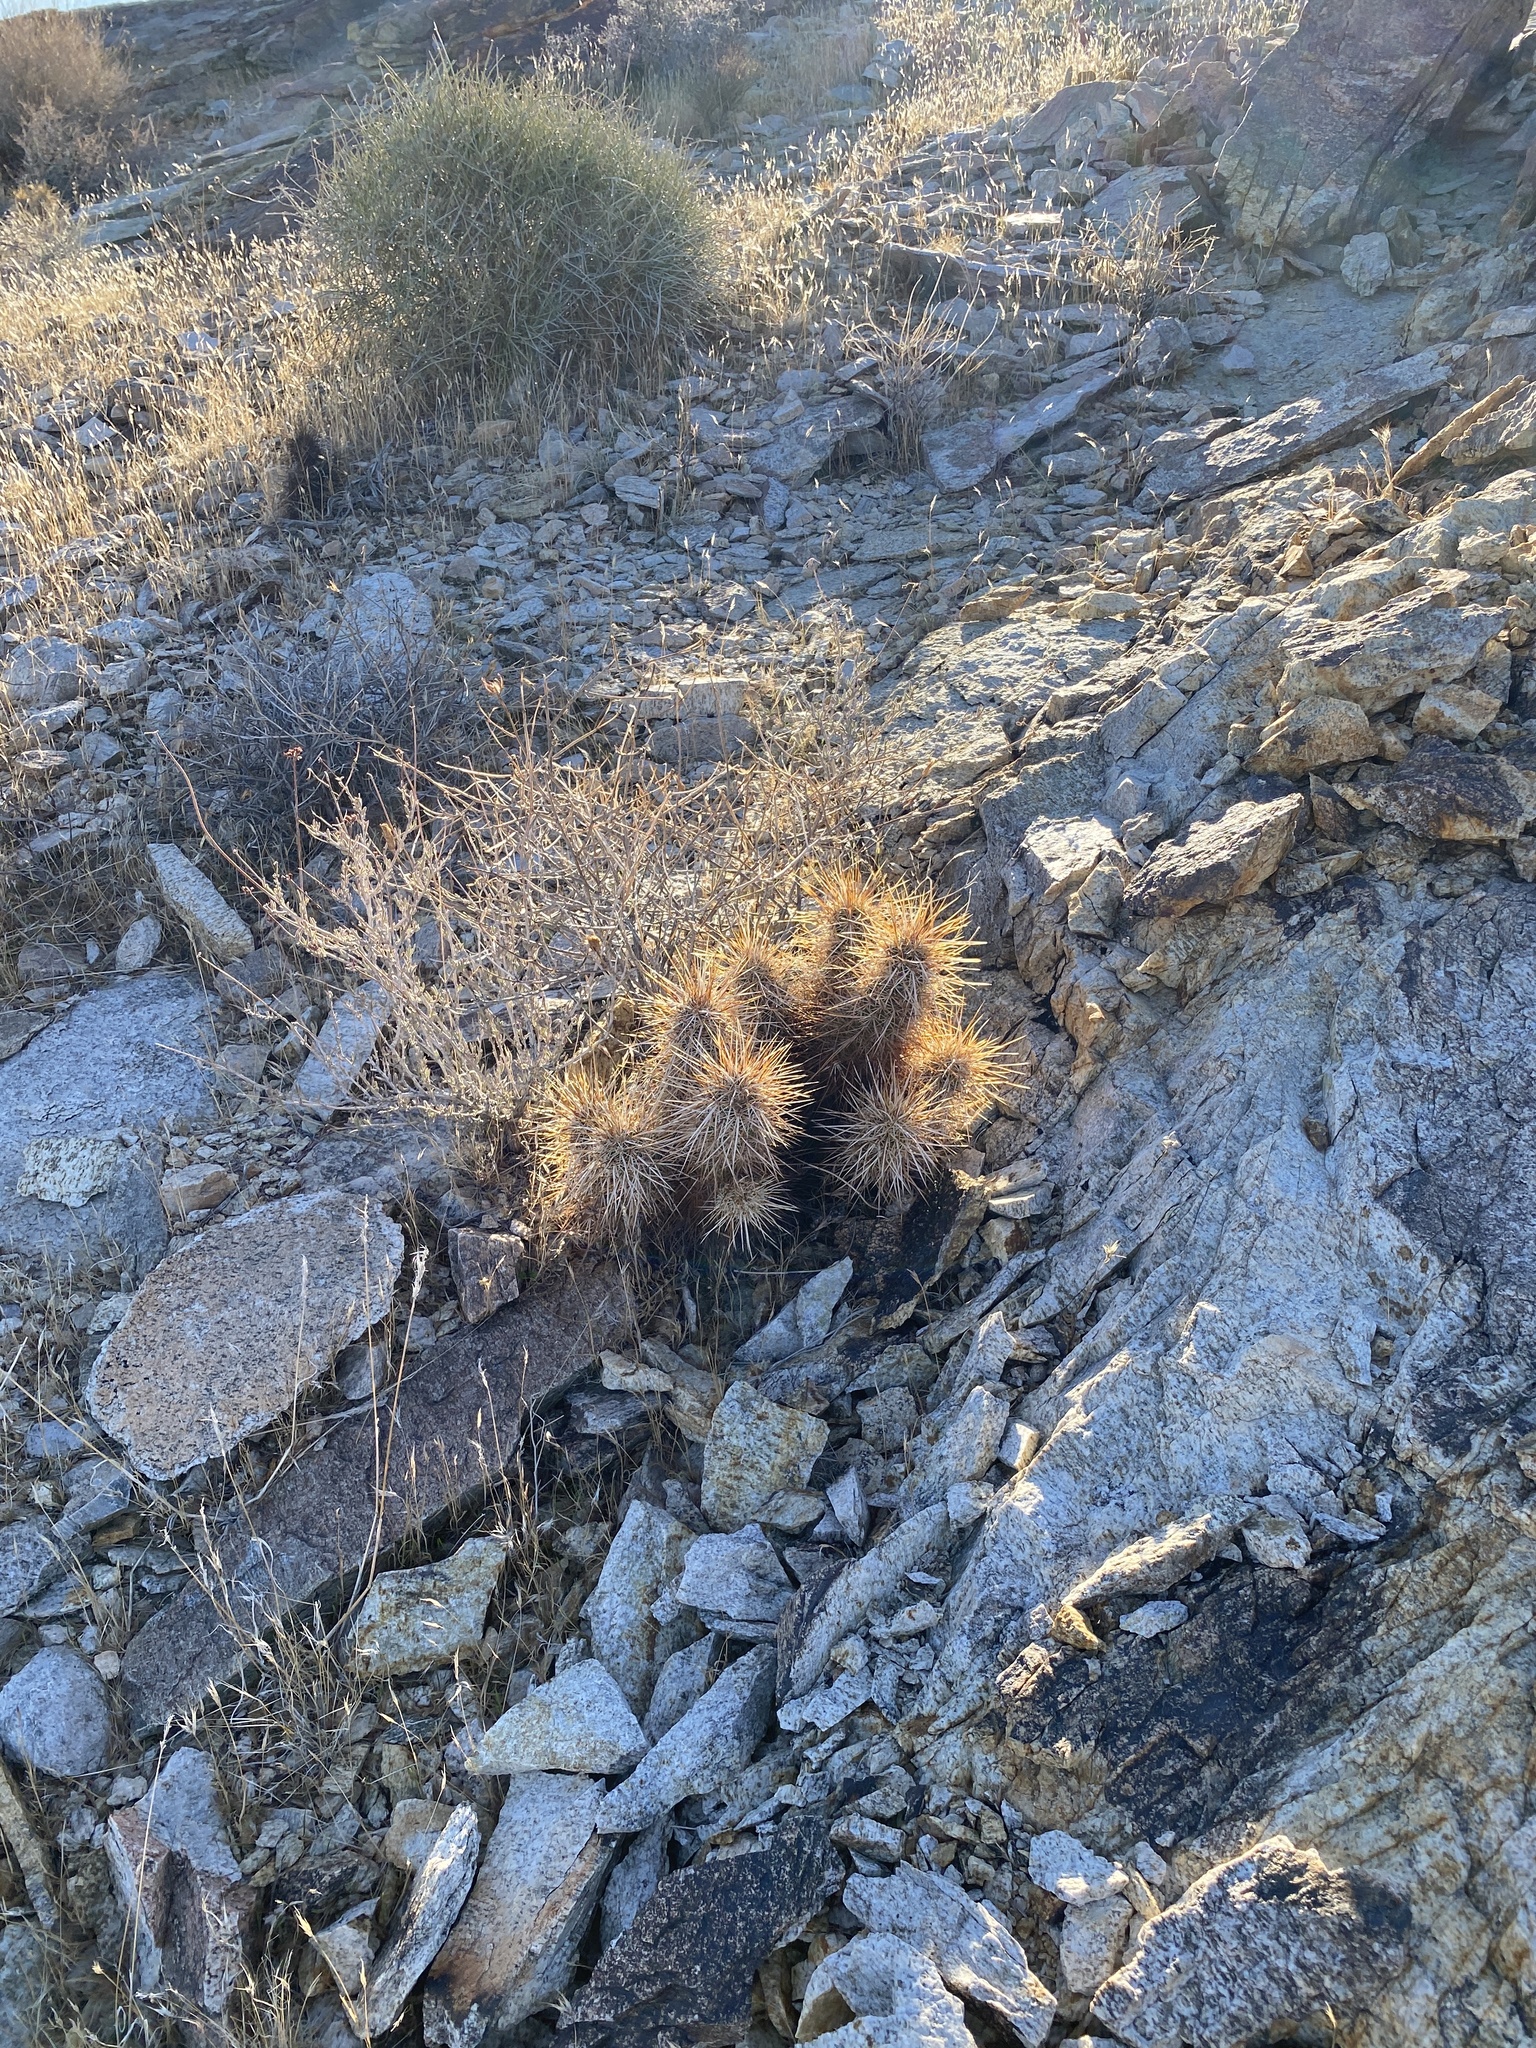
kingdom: Plantae
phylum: Tracheophyta
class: Magnoliopsida
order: Caryophyllales
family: Cactaceae
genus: Echinocereus
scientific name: Echinocereus engelmannii
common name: Engelmann's hedgehog cactus
